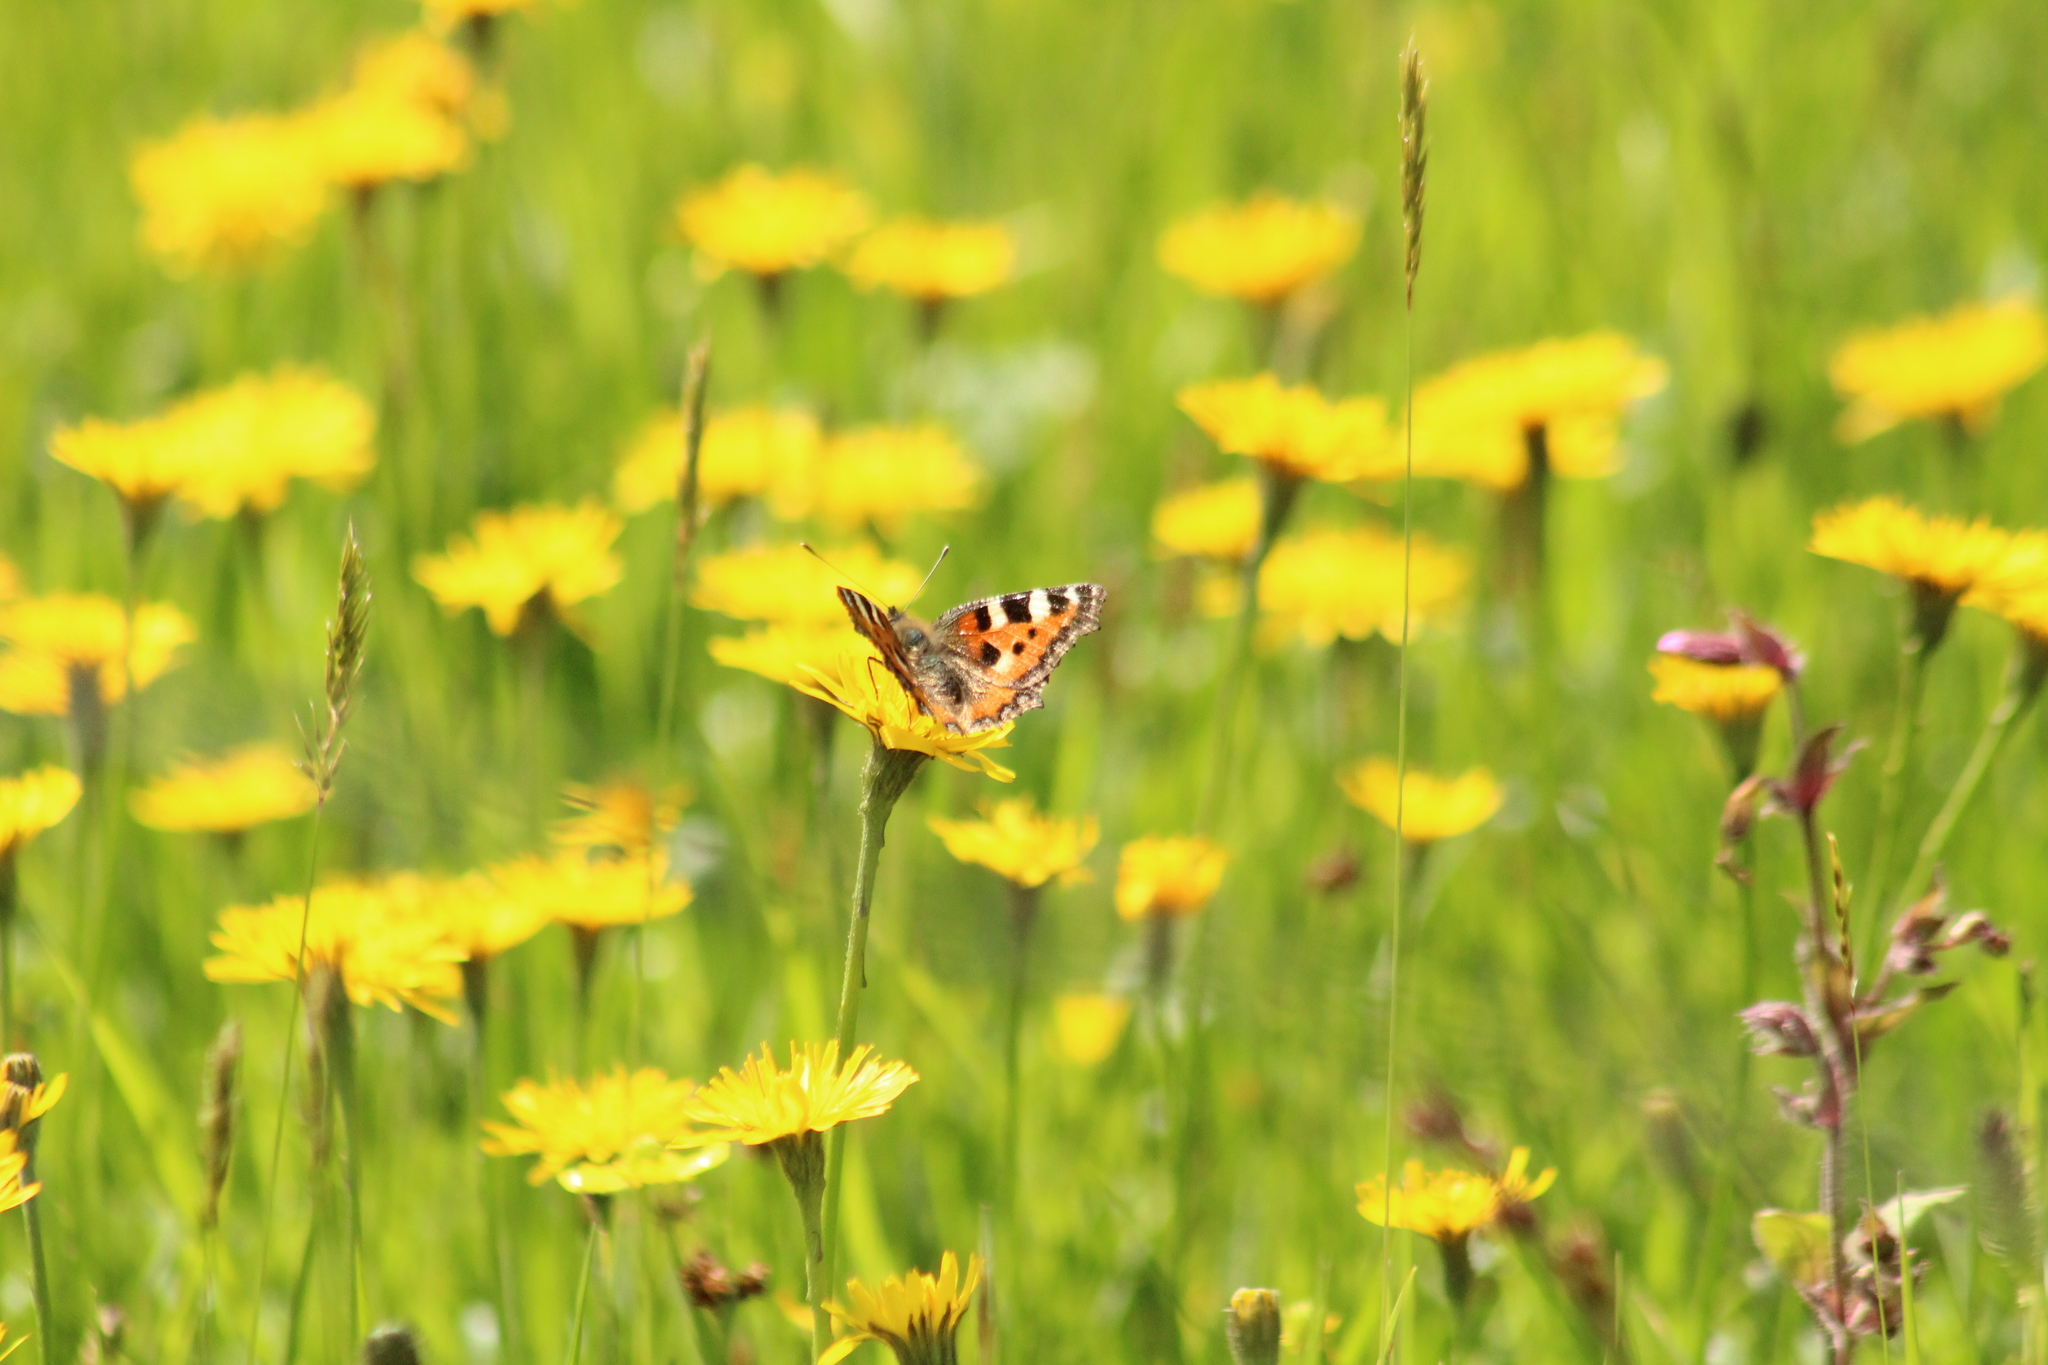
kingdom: Animalia
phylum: Arthropoda
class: Insecta
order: Lepidoptera
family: Nymphalidae
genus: Aglais
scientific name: Aglais urticae
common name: Small tortoiseshell
